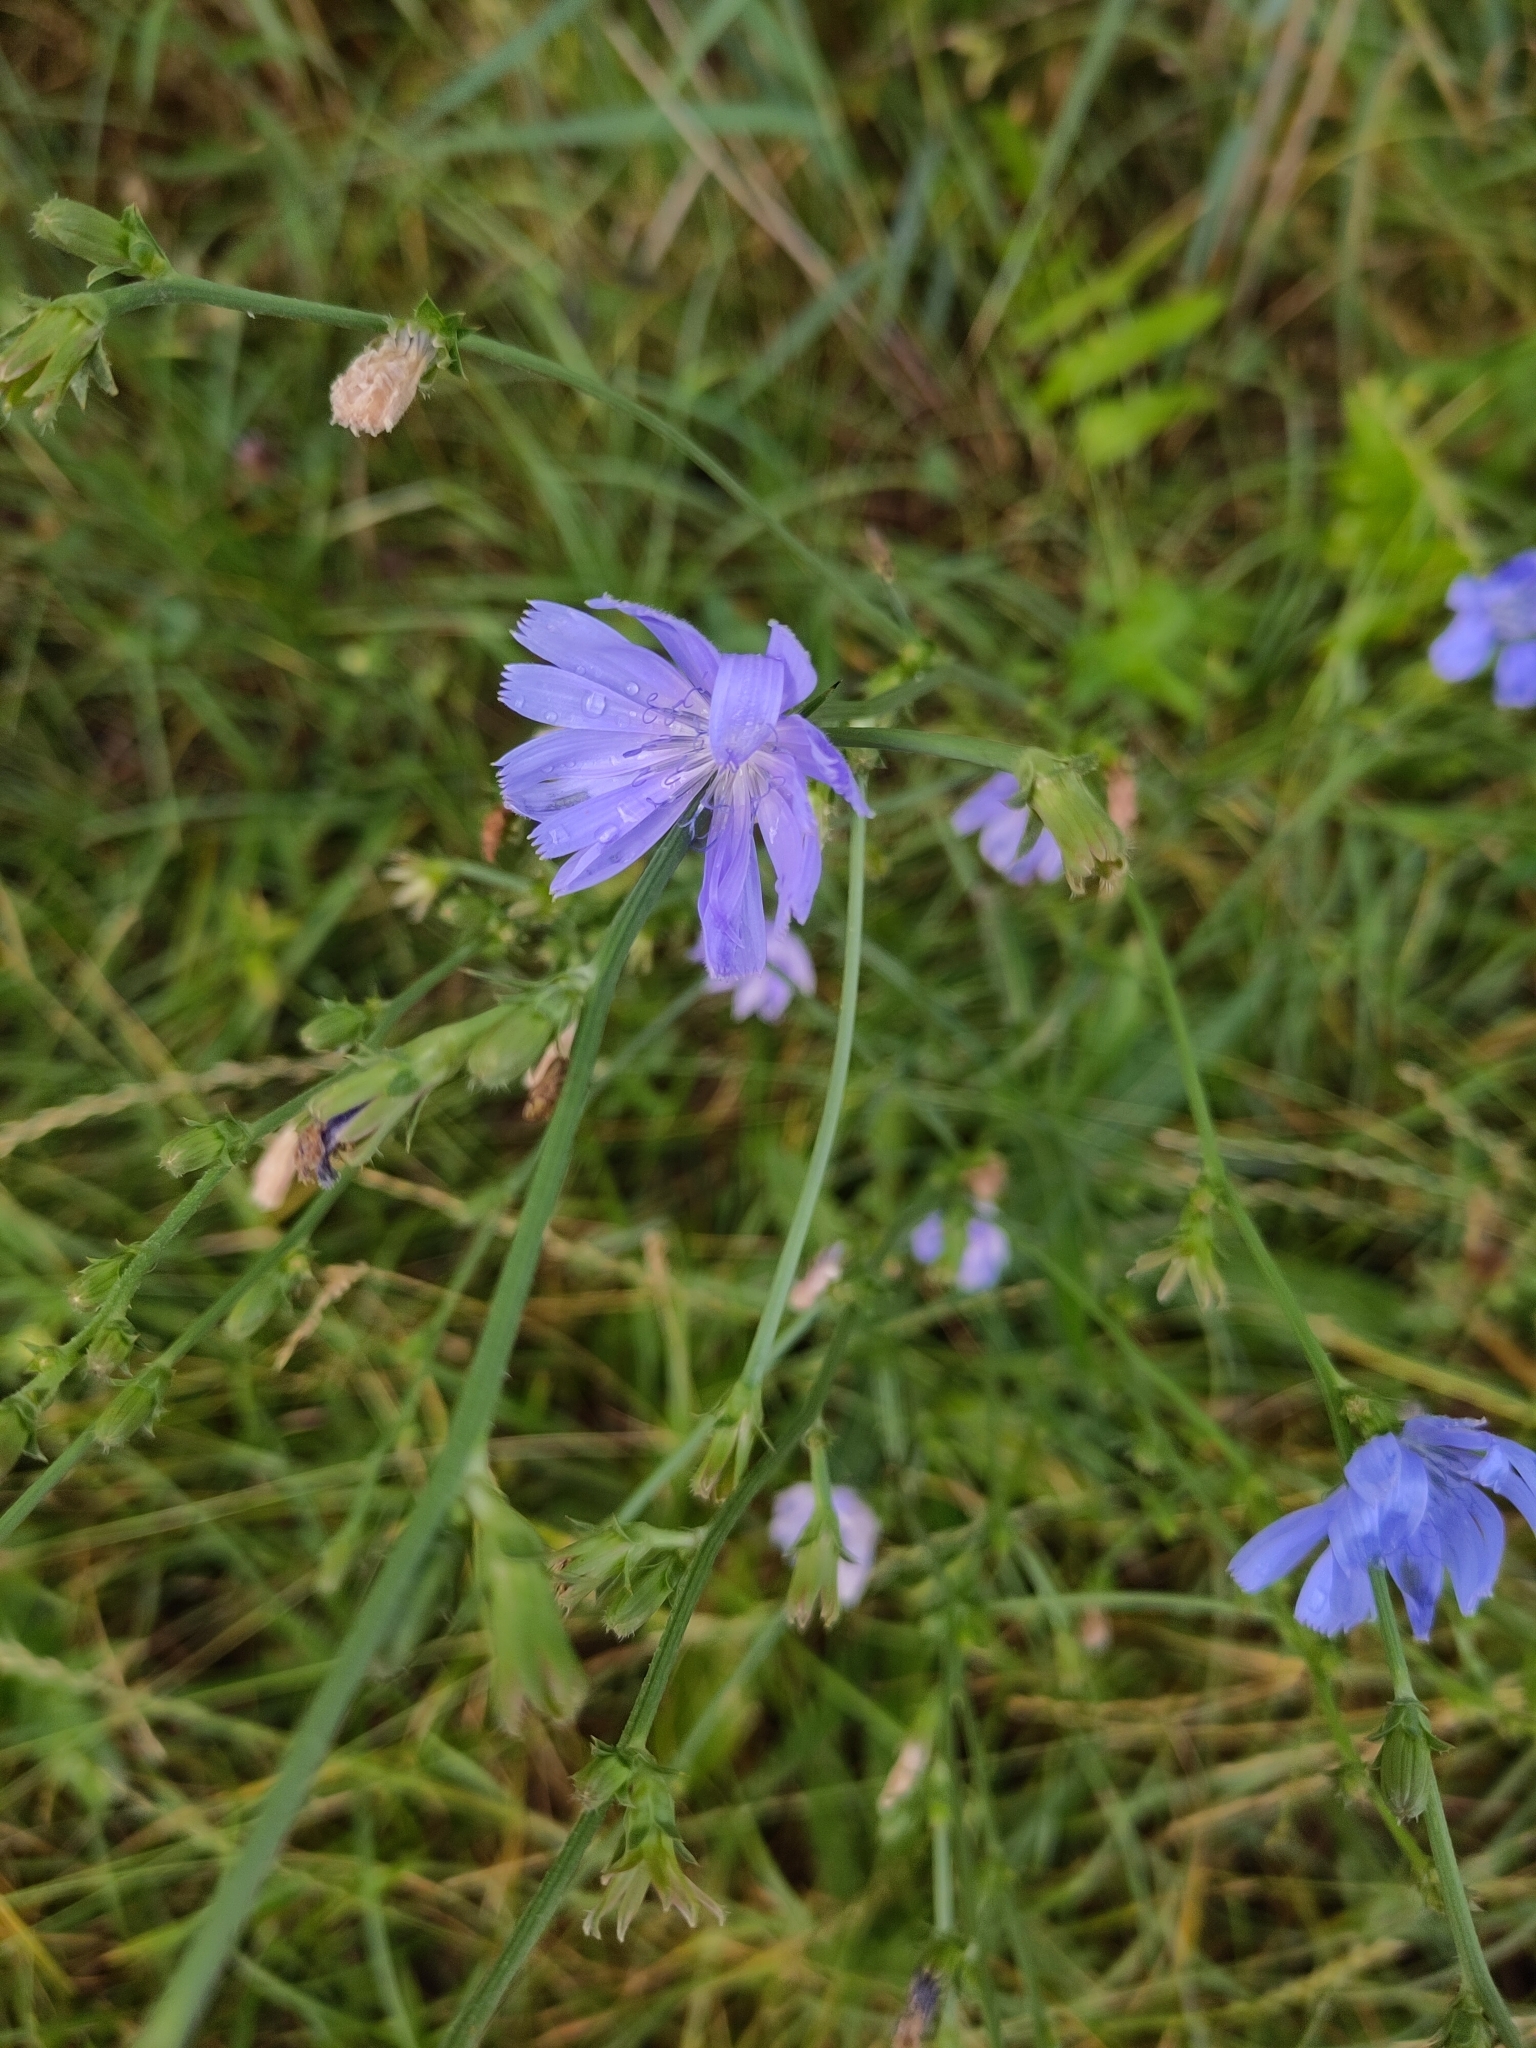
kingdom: Plantae
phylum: Tracheophyta
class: Magnoliopsida
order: Asterales
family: Asteraceae
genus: Cichorium
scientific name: Cichorium intybus
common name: Chicory
